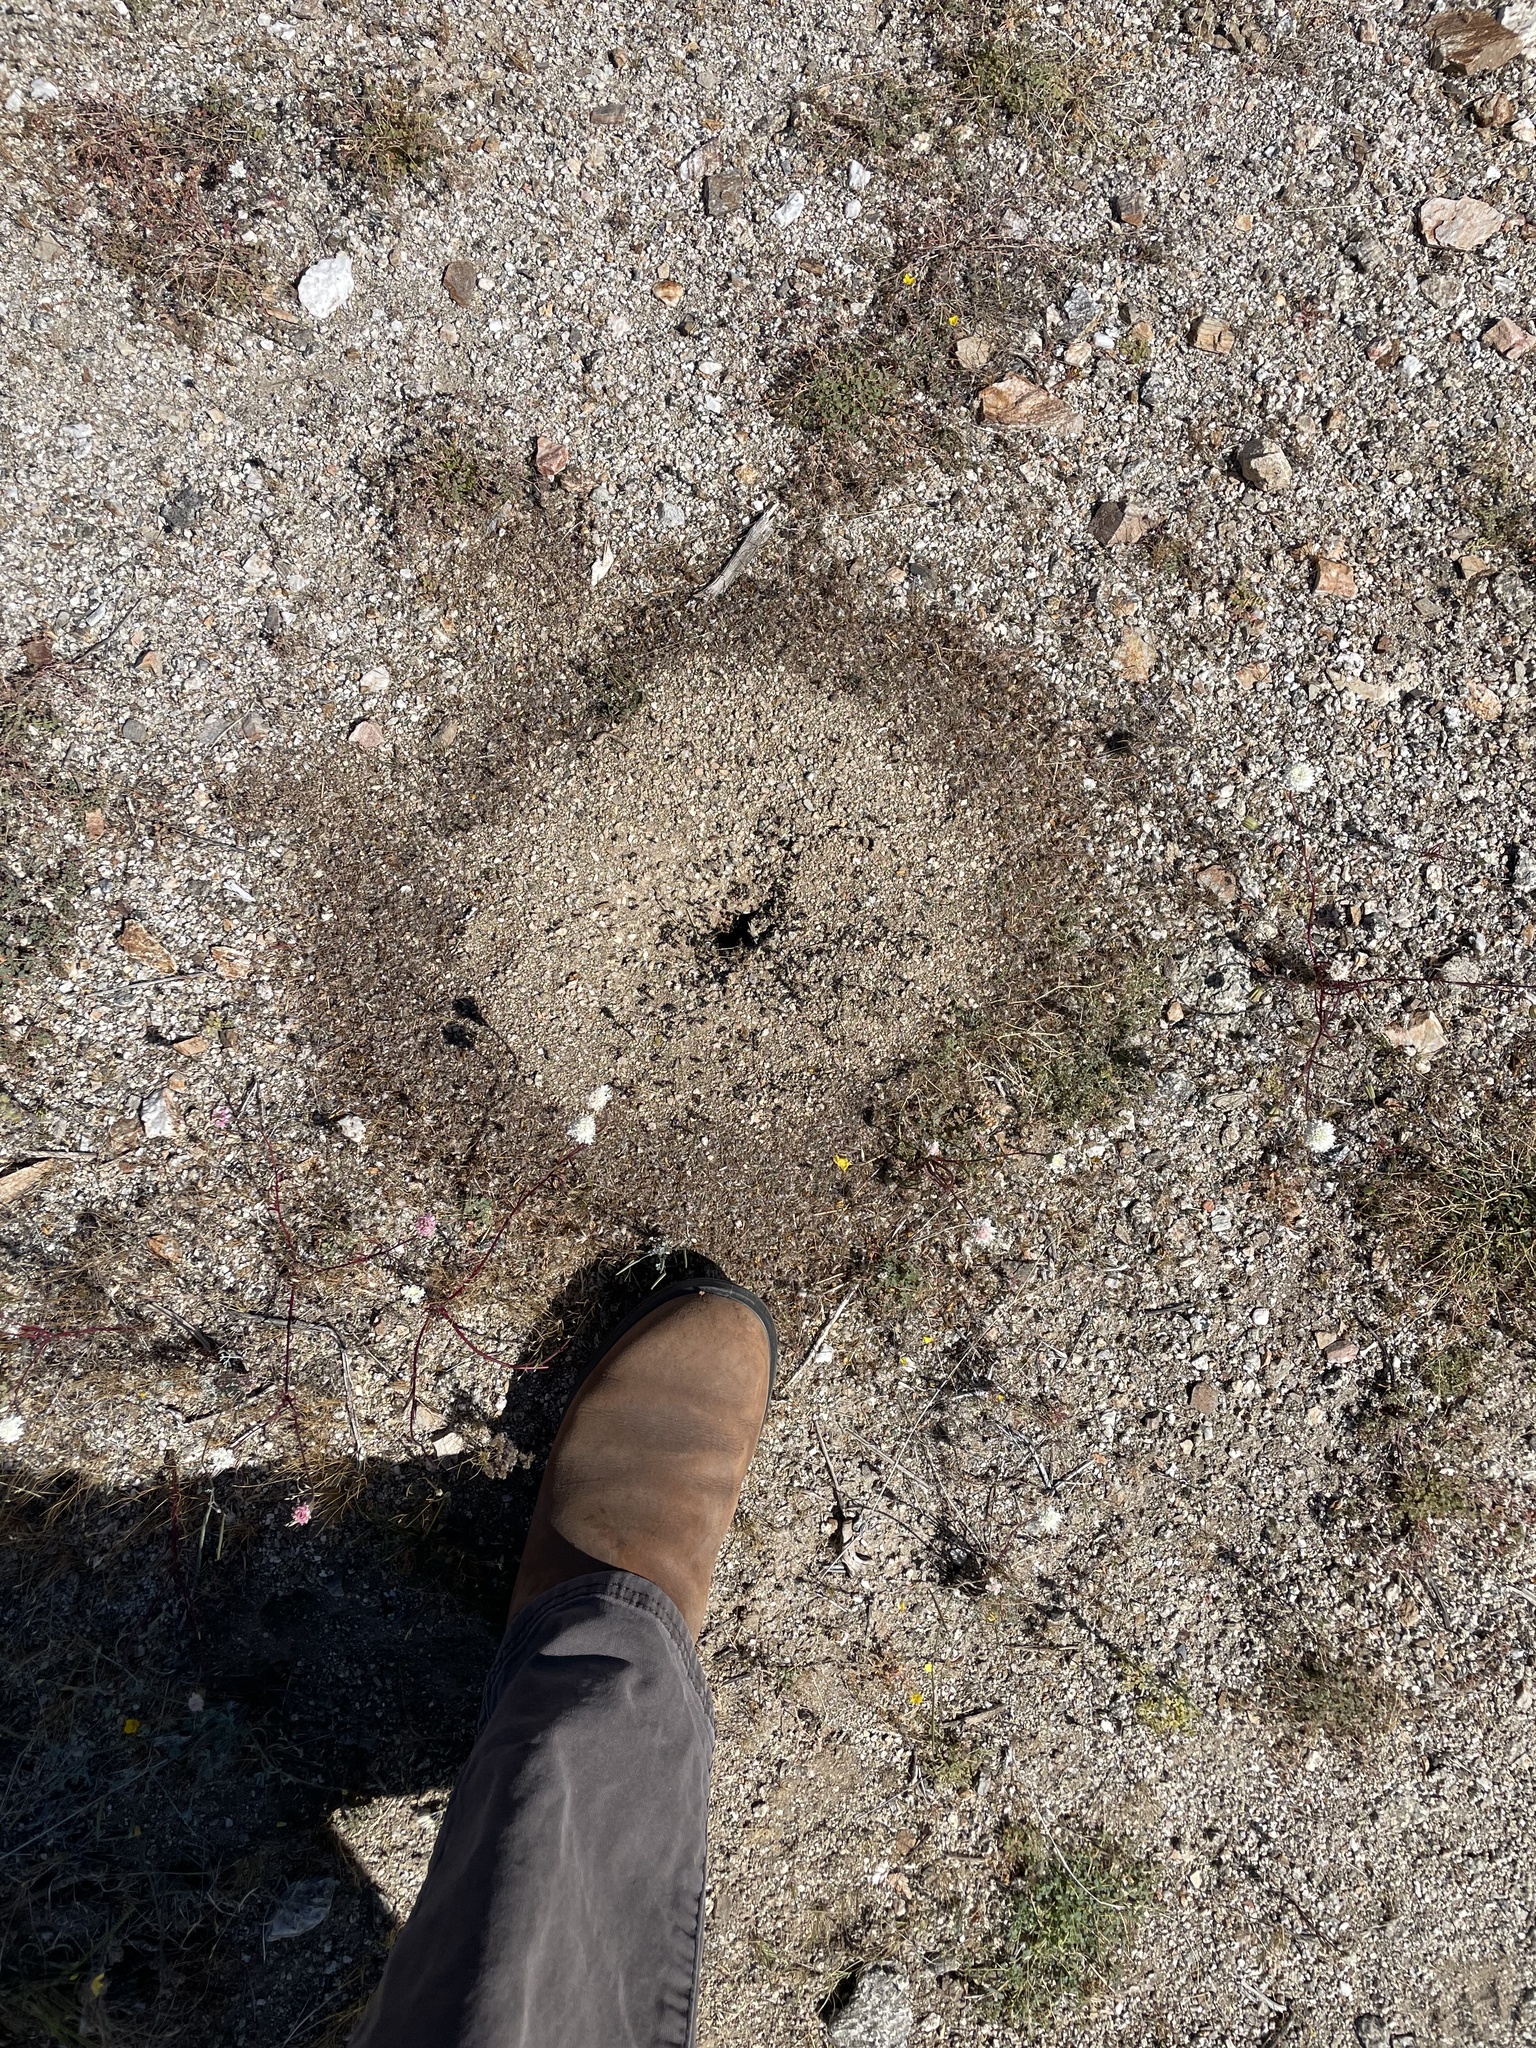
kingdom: Animalia
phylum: Arthropoda
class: Insecta
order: Hymenoptera
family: Formicidae
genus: Messor
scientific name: Messor pergandei
